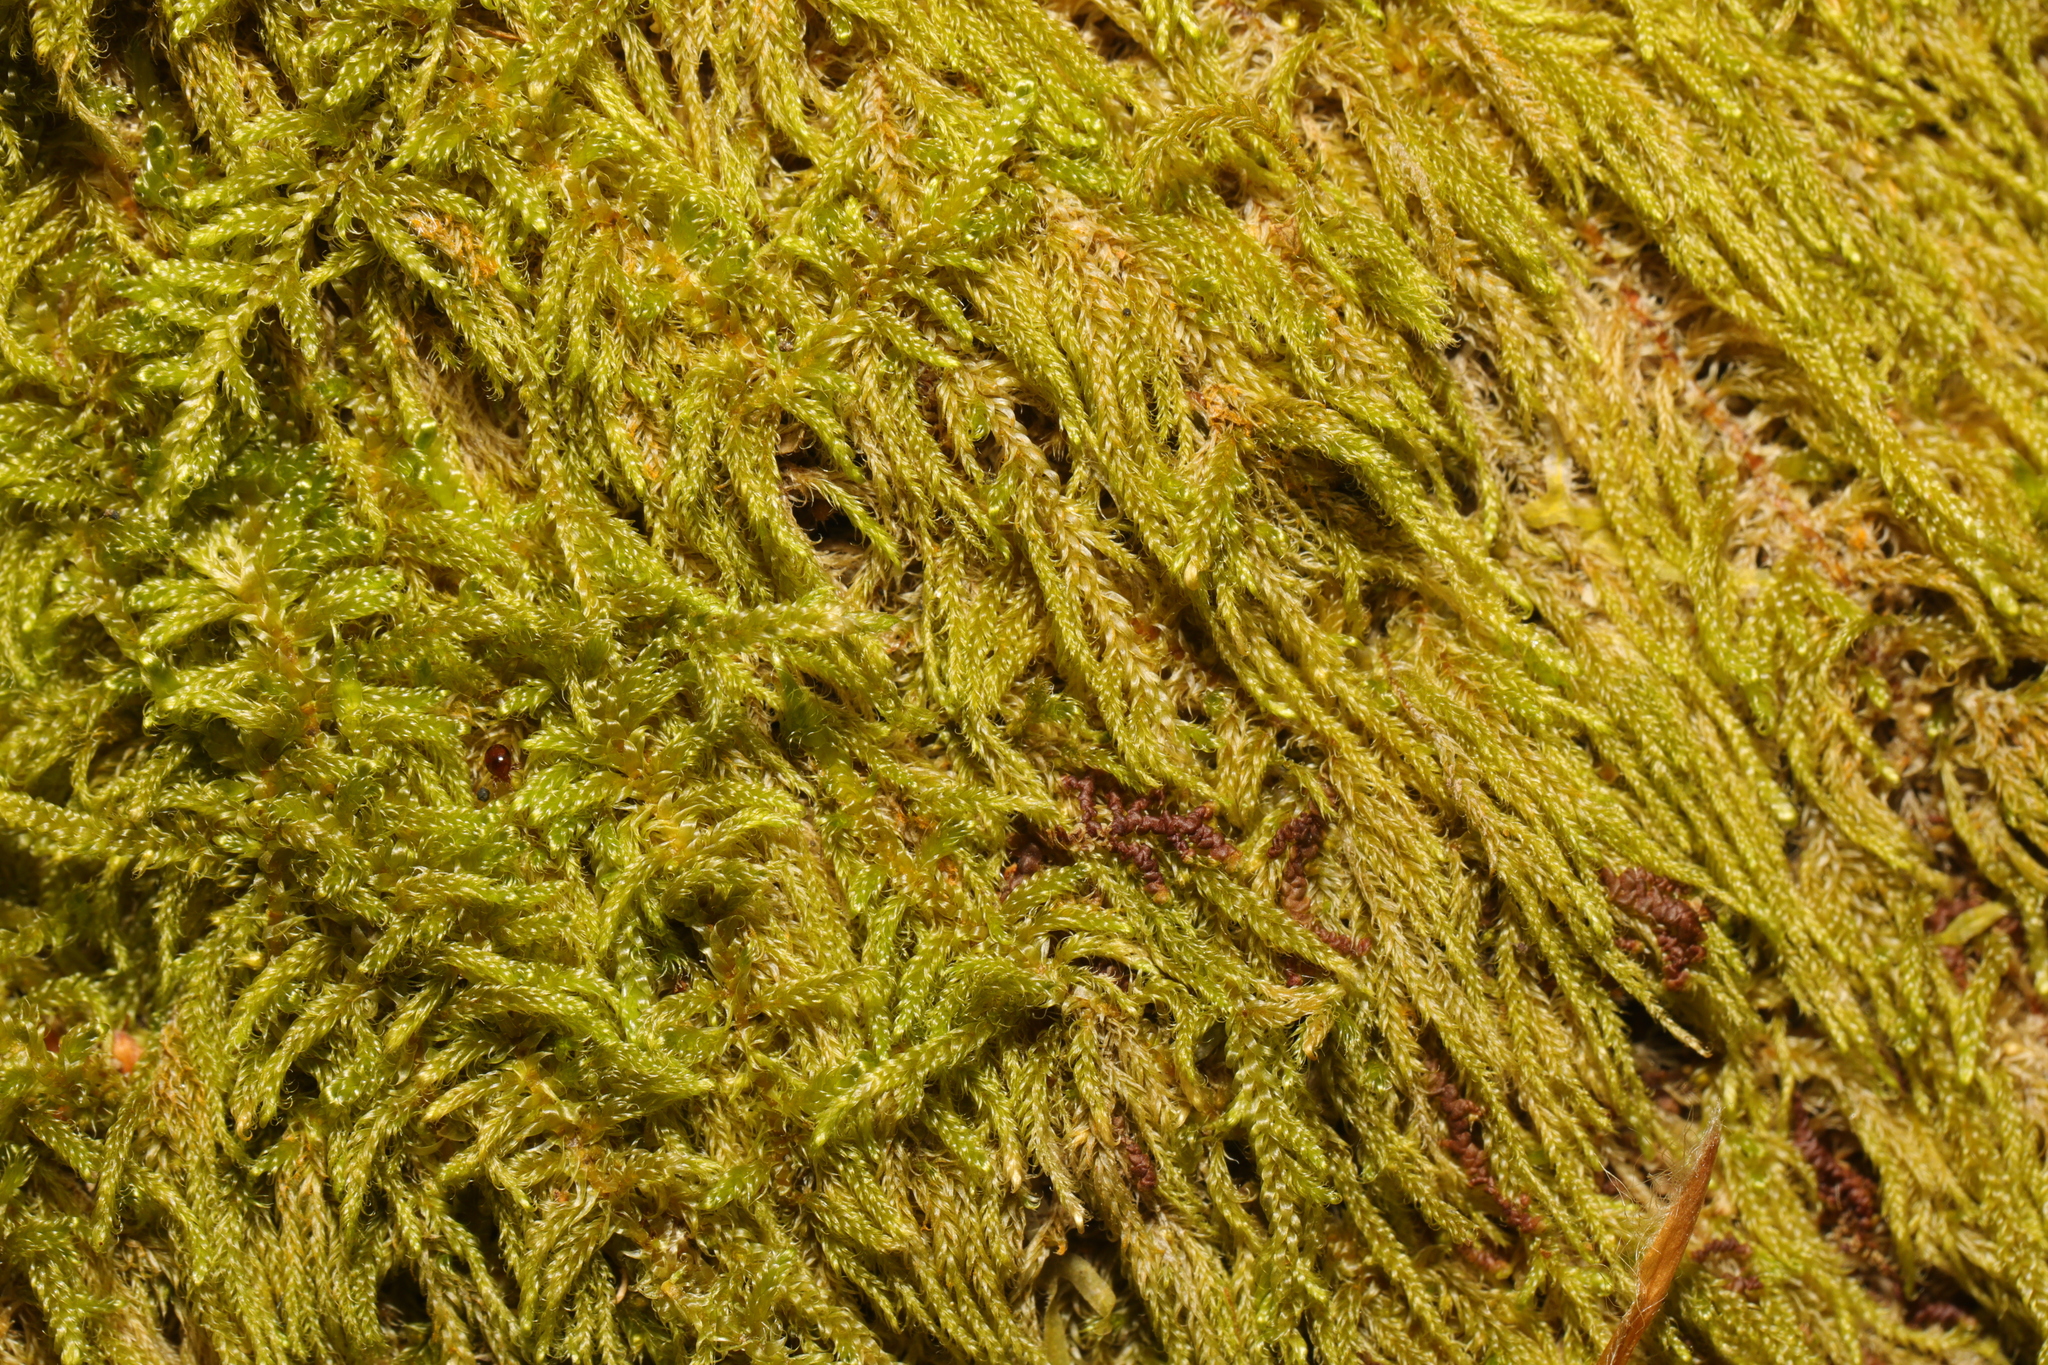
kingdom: Plantae
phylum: Bryophyta
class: Bryopsida
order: Hypnales
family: Hypnaceae
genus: Hypnum
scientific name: Hypnum cupressiforme
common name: Cypress-leaved plait-moss
